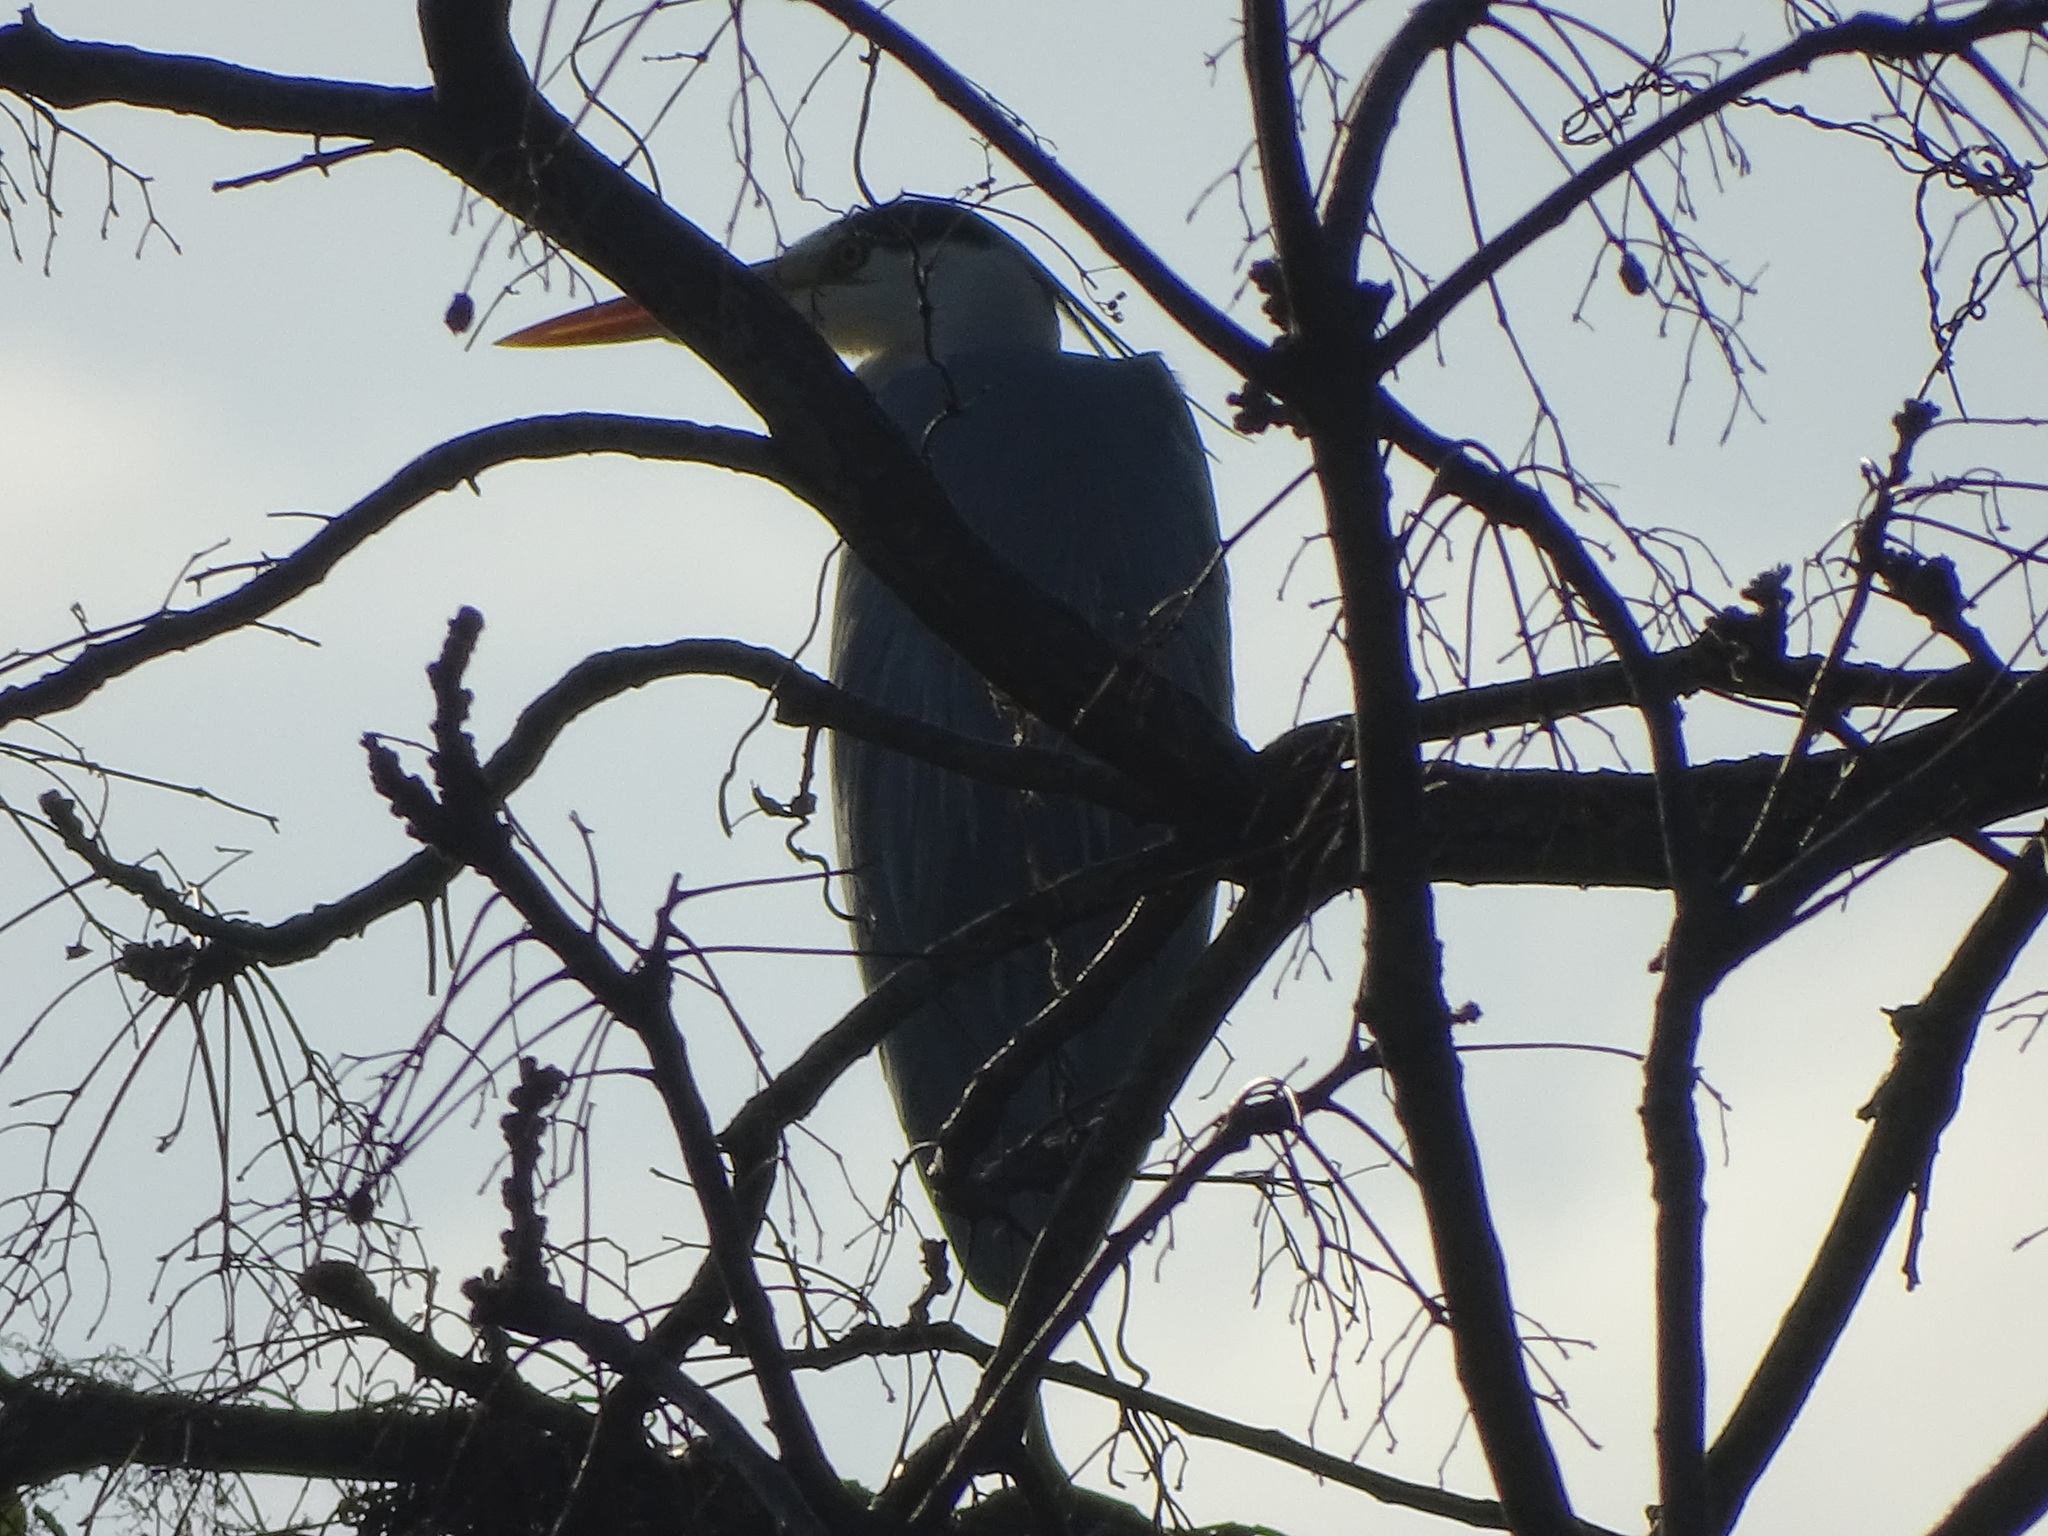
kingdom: Animalia
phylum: Chordata
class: Aves
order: Pelecaniformes
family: Ardeidae
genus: Ardea
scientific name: Ardea cinerea
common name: Grey heron
